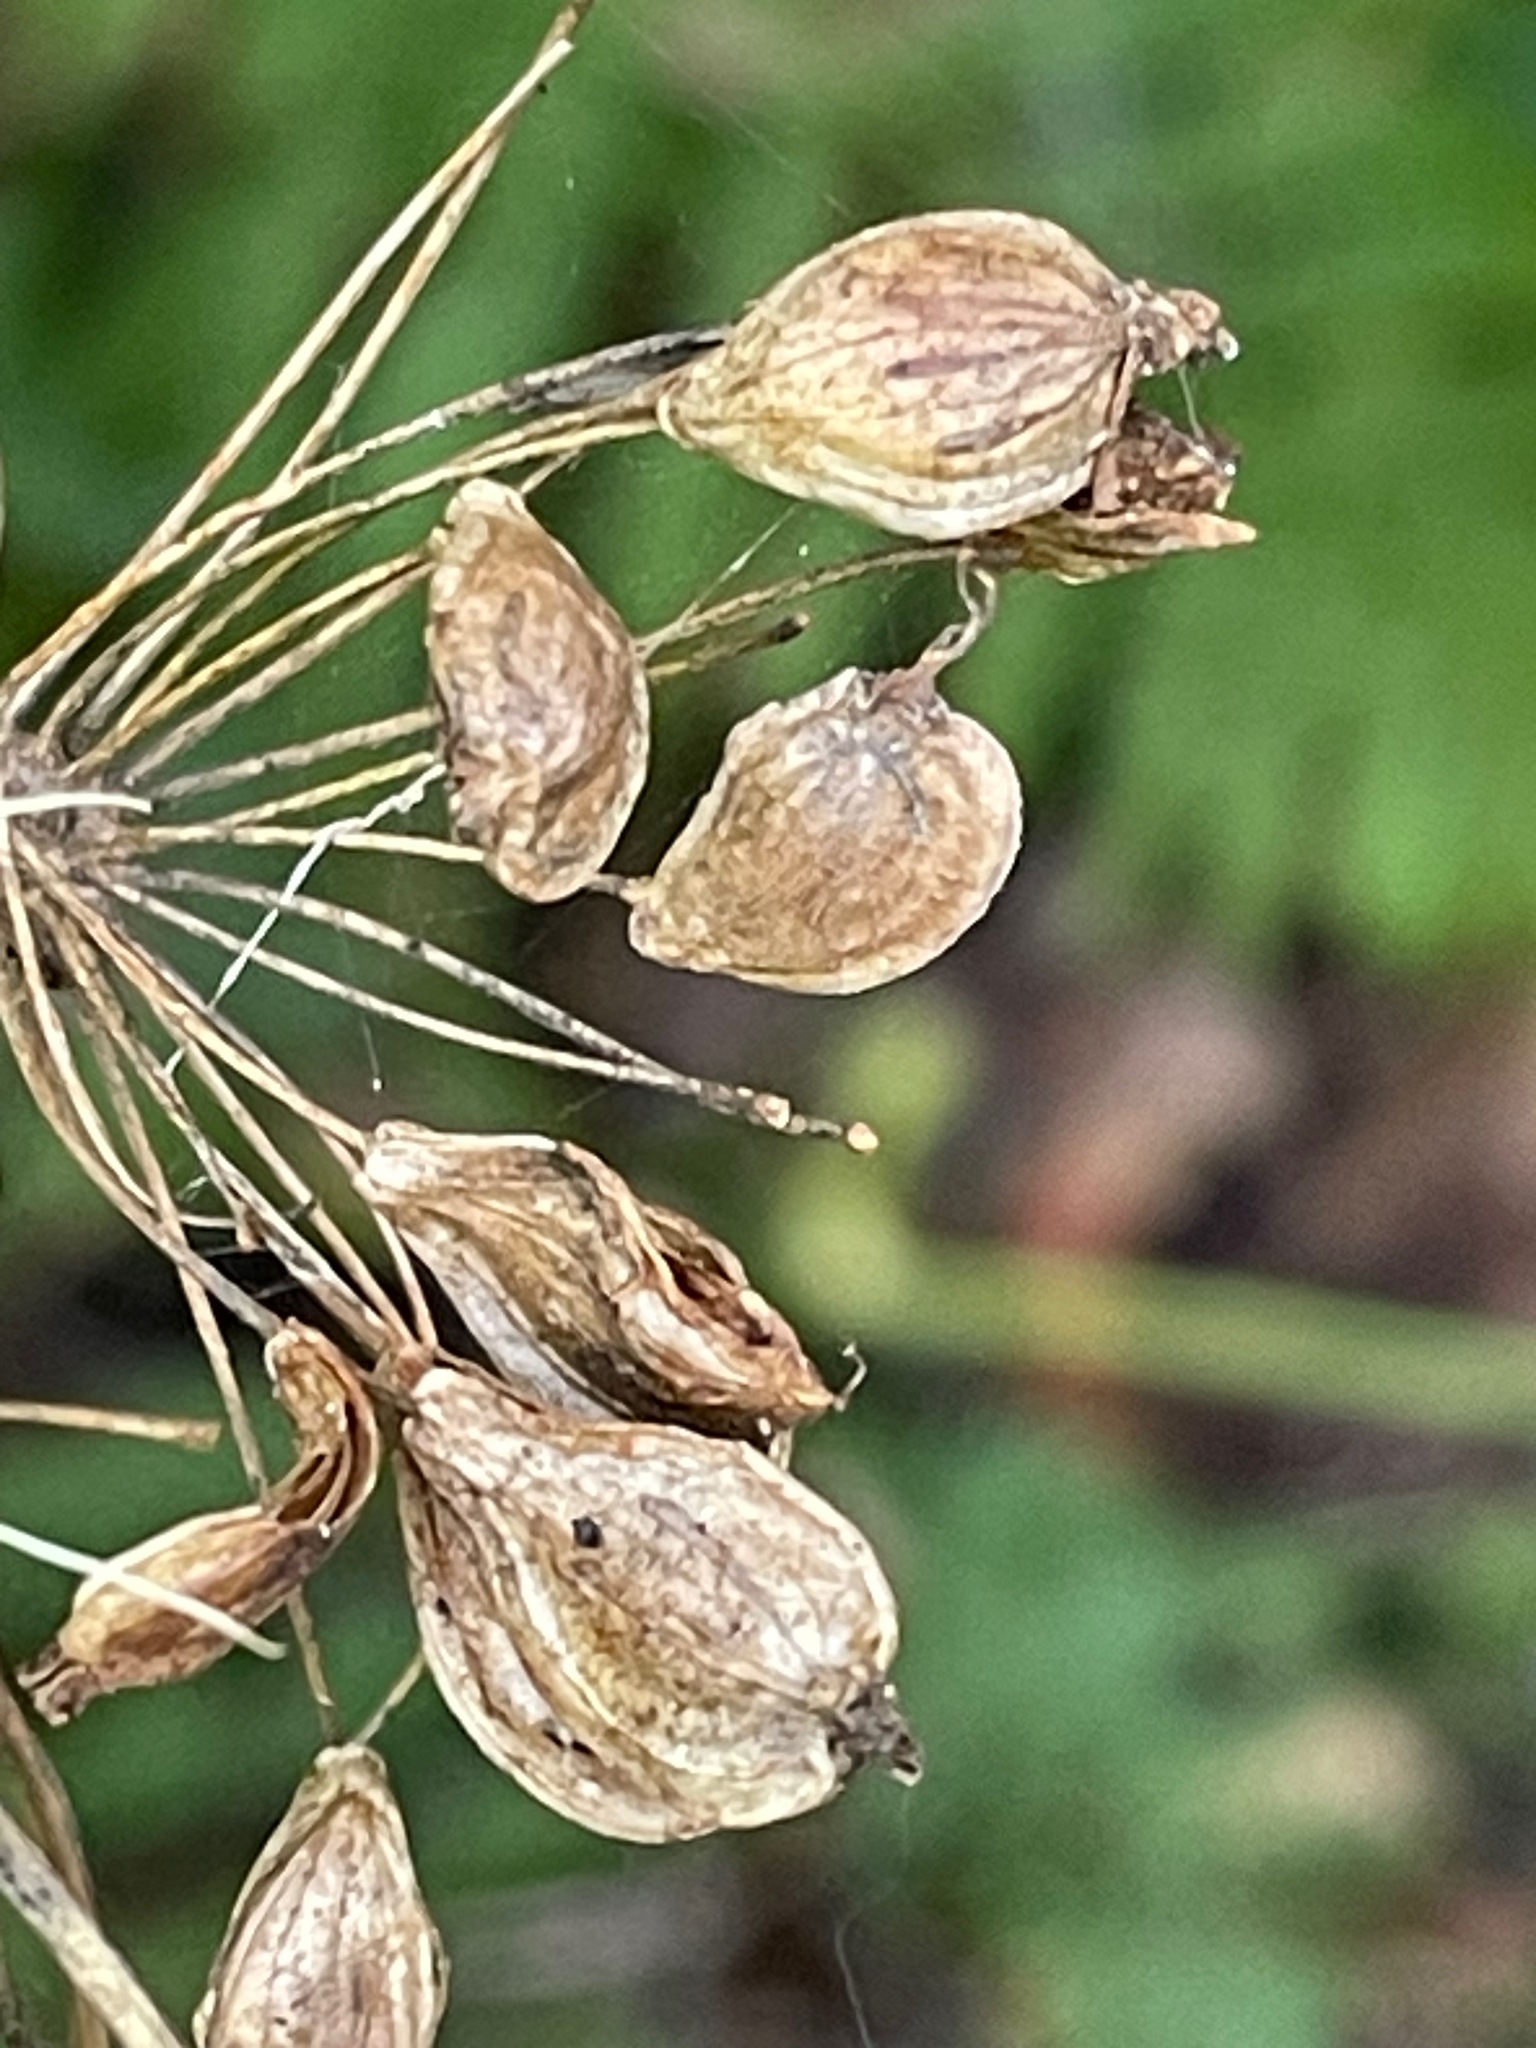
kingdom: Plantae
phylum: Tracheophyta
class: Magnoliopsida
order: Apiales
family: Apiaceae
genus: Heracleum
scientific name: Heracleum maximum
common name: American cow parsnip
